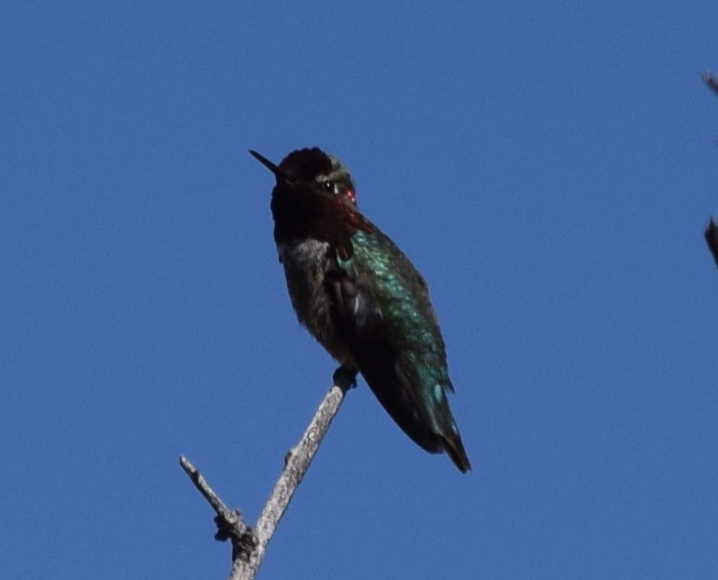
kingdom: Animalia
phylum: Chordata
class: Aves
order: Apodiformes
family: Trochilidae
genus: Calypte
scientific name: Calypte anna
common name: Anna's hummingbird
